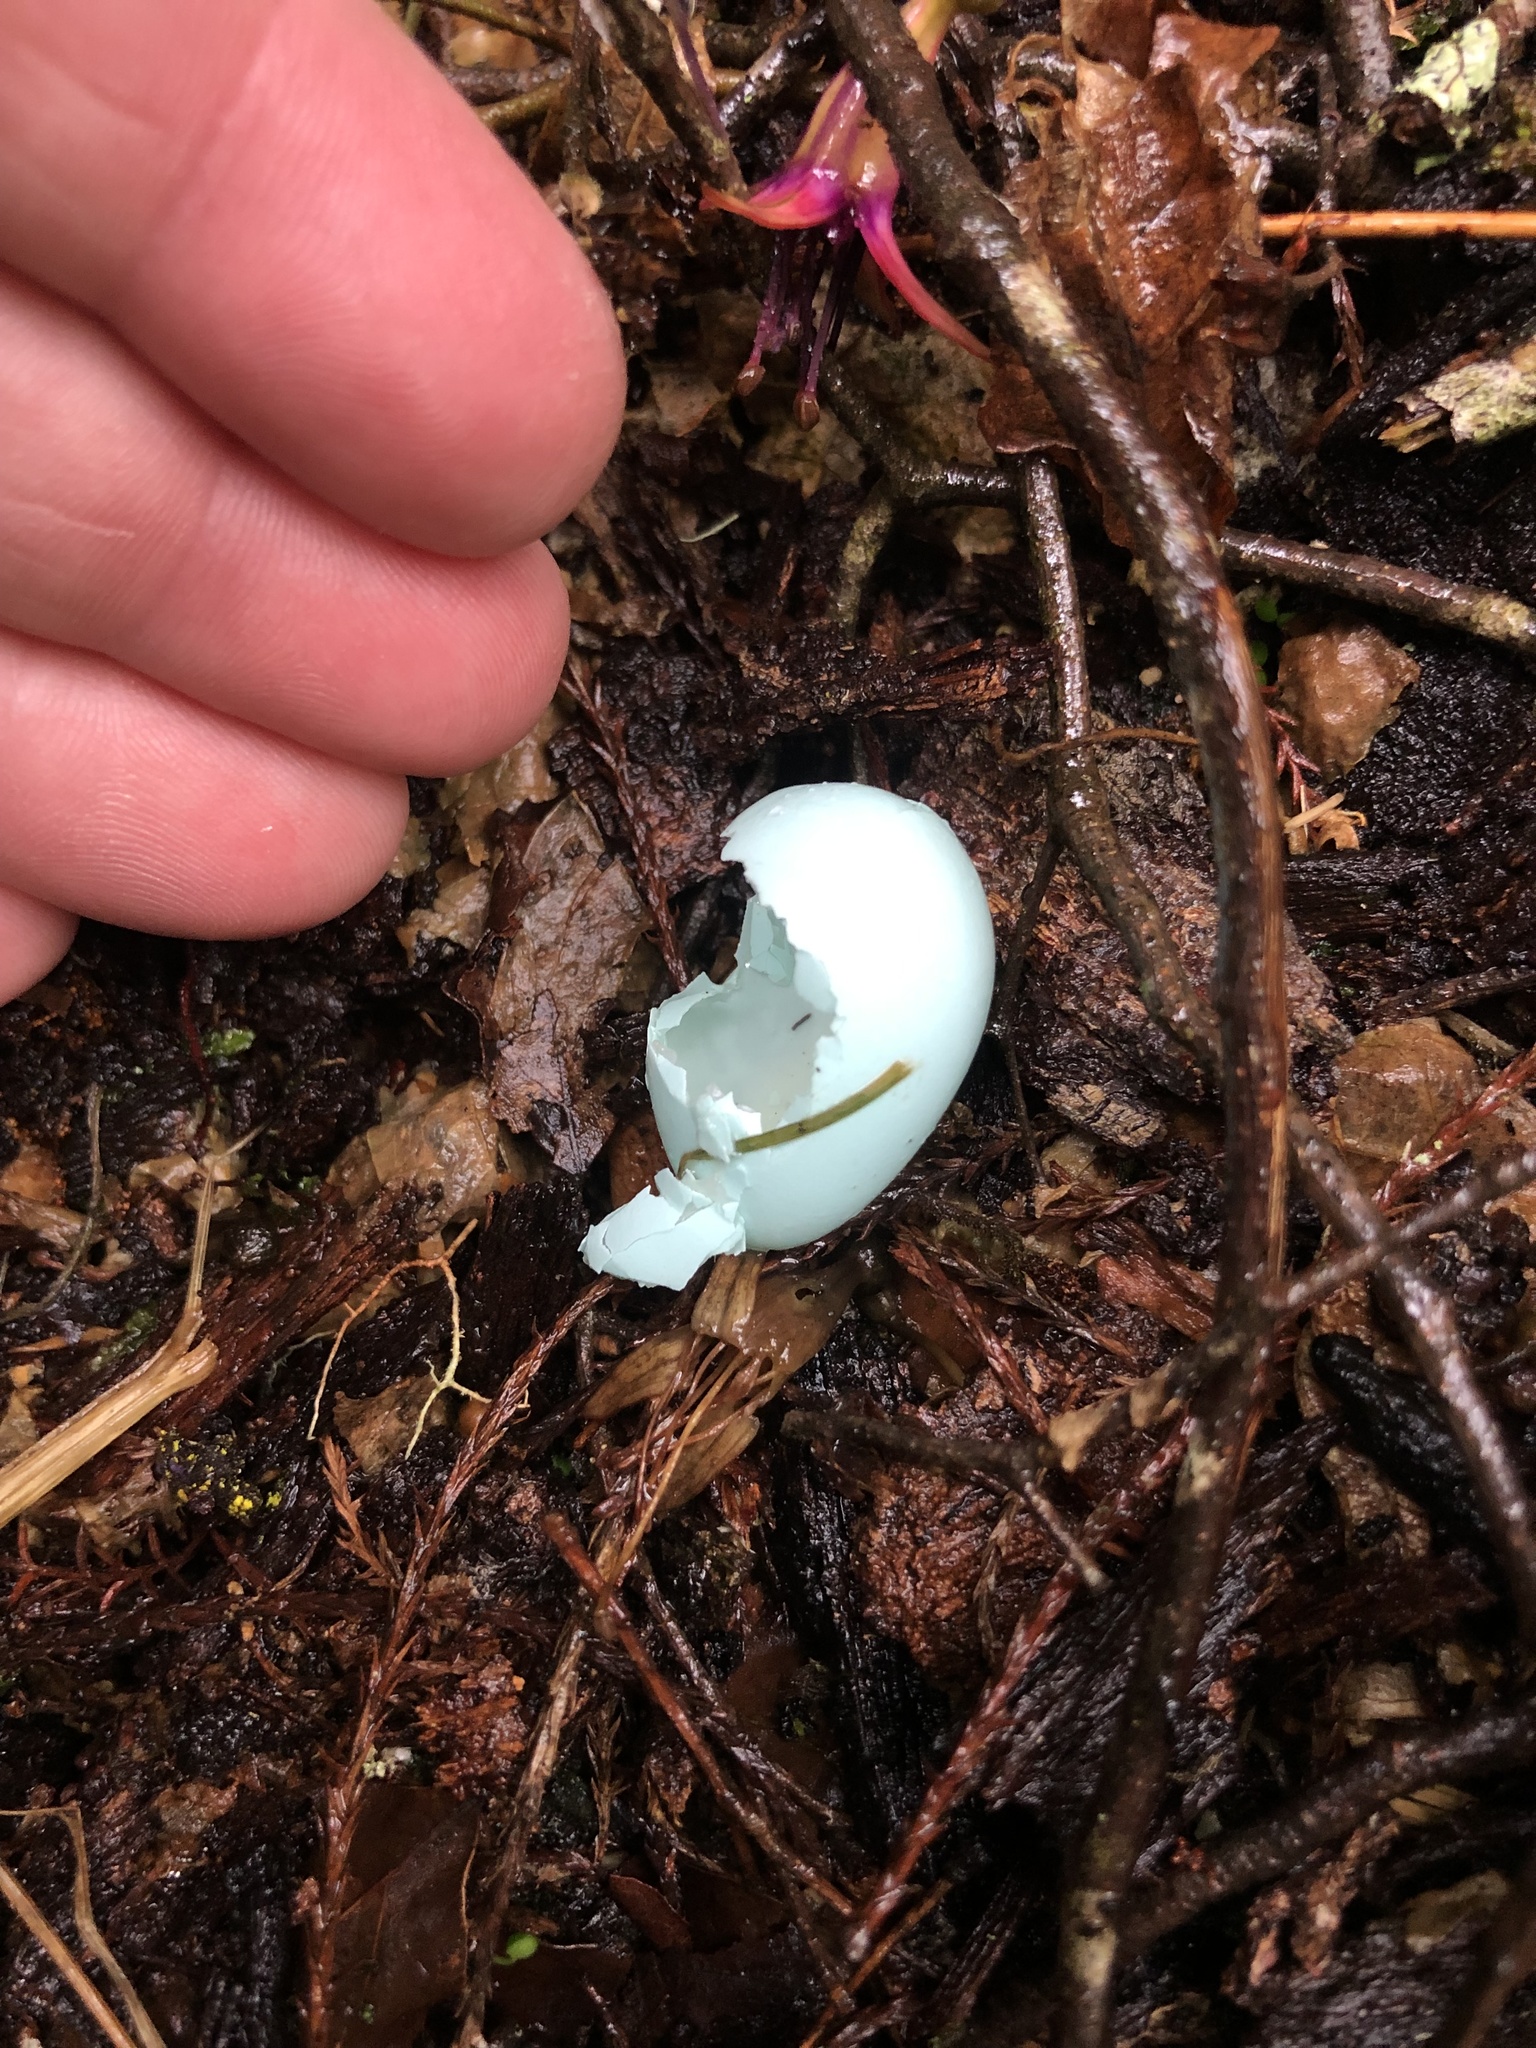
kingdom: Animalia
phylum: Chordata
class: Aves
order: Passeriformes
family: Sturnidae
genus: Sturnus
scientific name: Sturnus vulgaris
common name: Common starling
